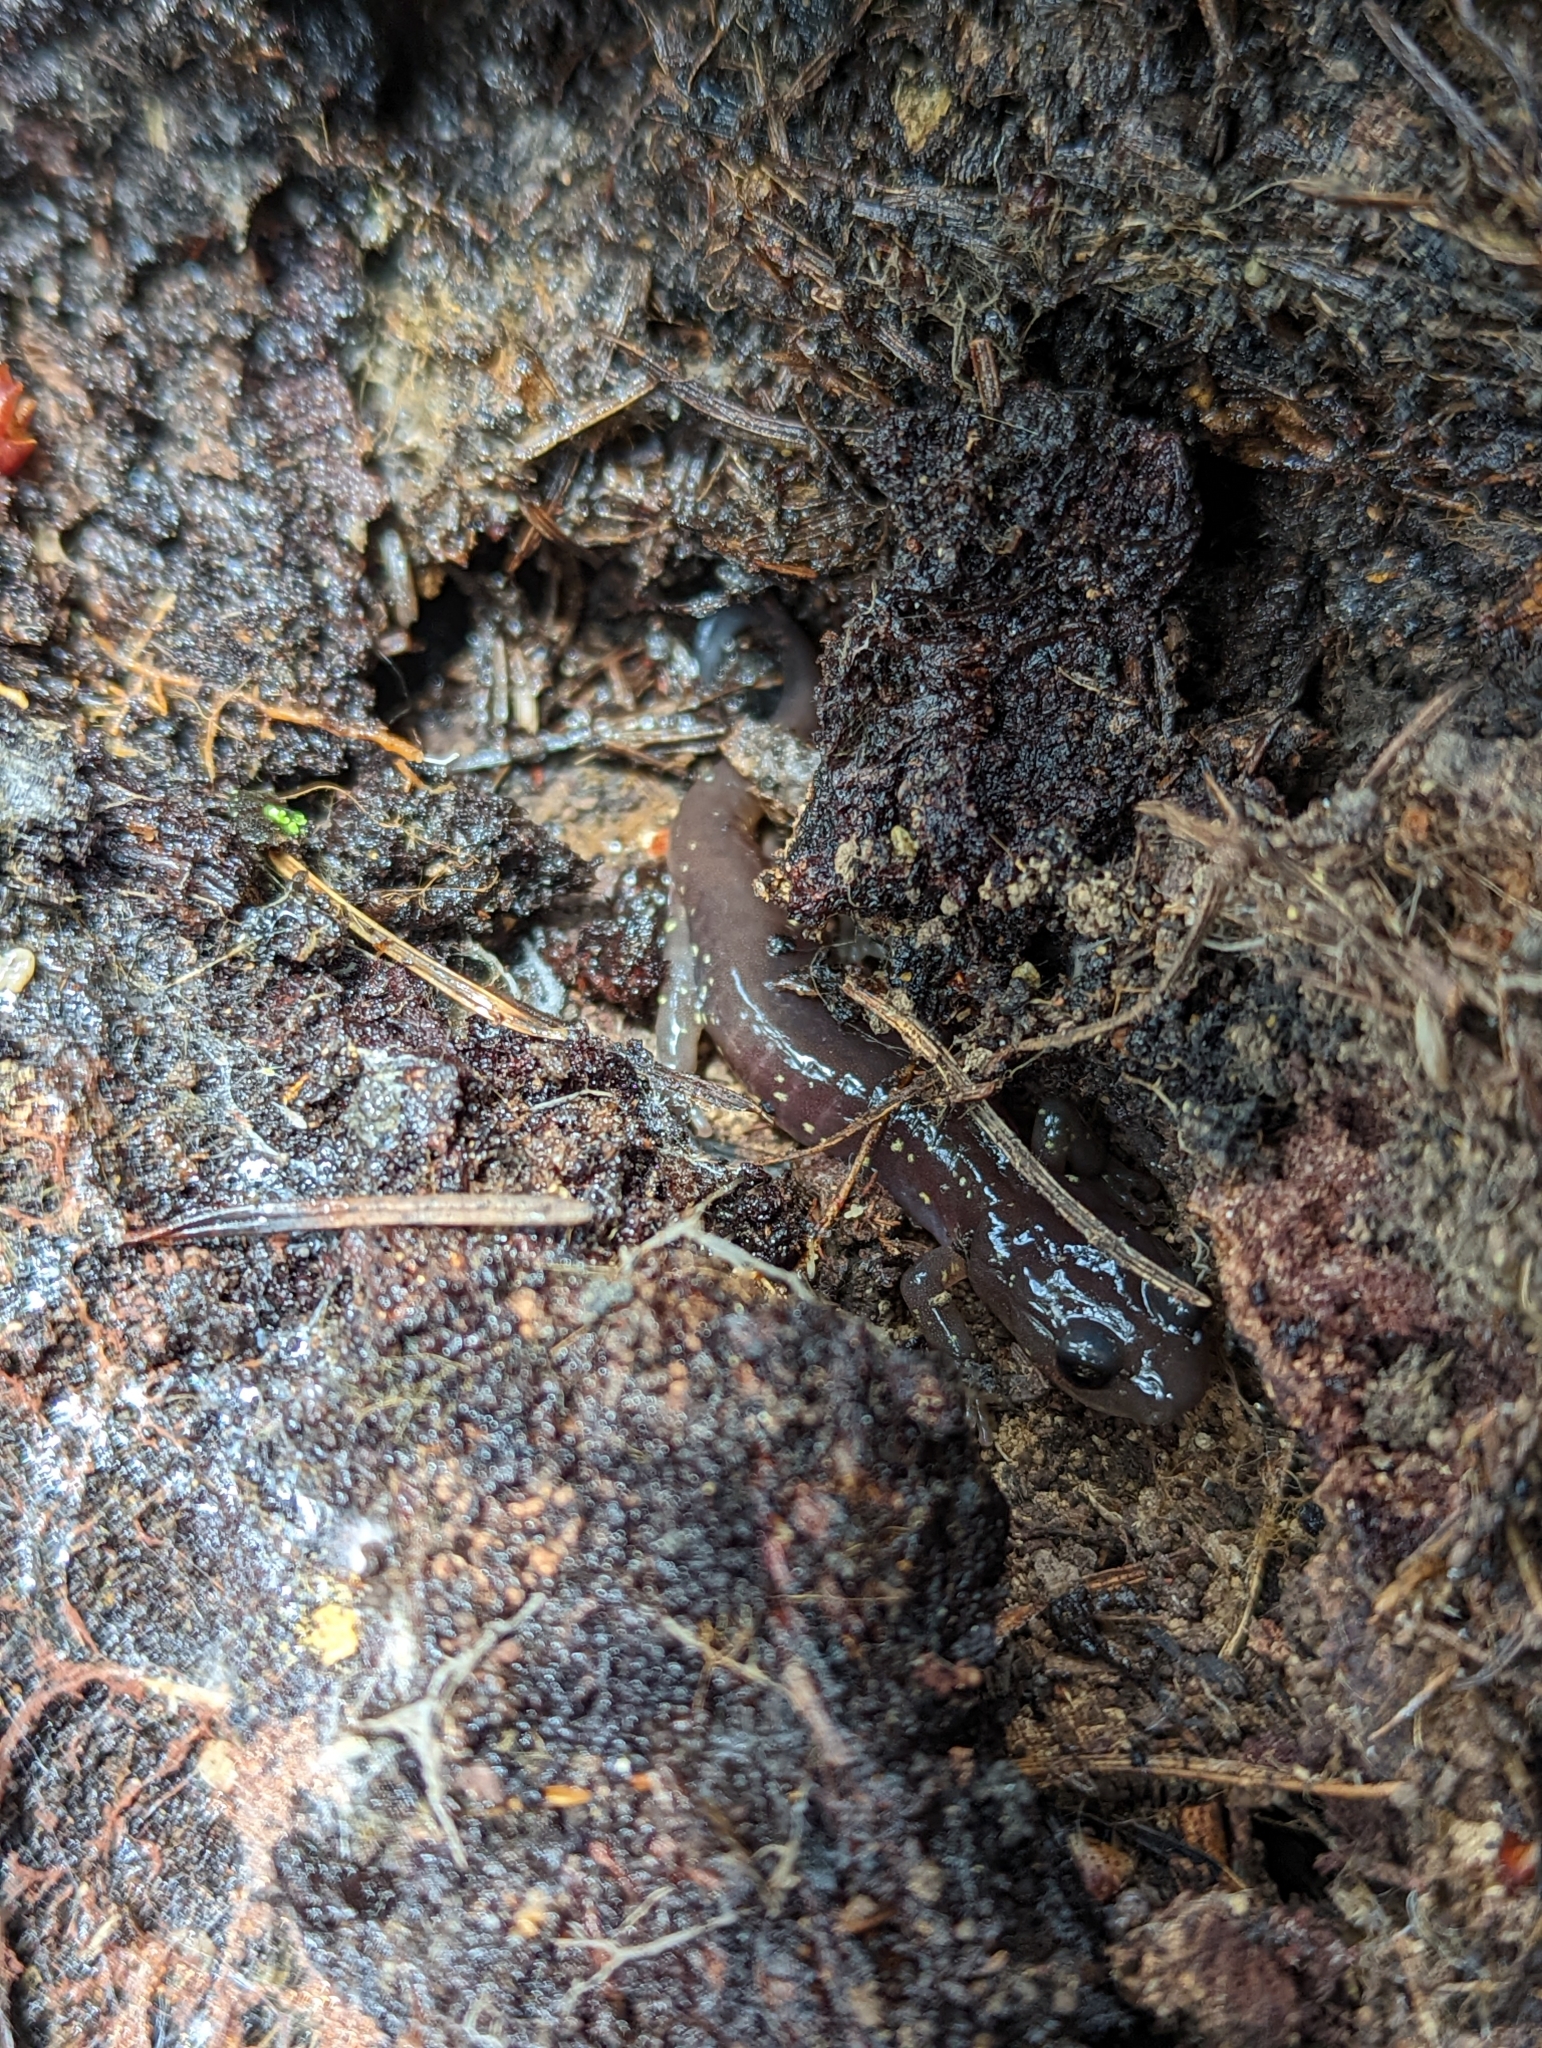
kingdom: Animalia
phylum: Chordata
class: Amphibia
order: Caudata
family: Plethodontidae
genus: Aneides
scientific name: Aneides lugubris
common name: Arboreal salamander
